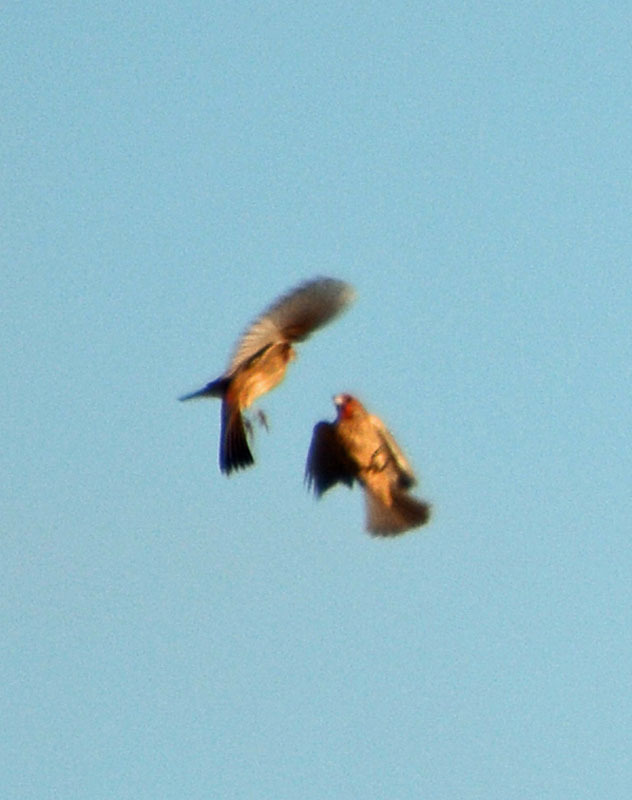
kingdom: Animalia
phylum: Chordata
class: Aves
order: Passeriformes
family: Fringillidae
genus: Haemorhous
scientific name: Haemorhous mexicanus
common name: House finch
